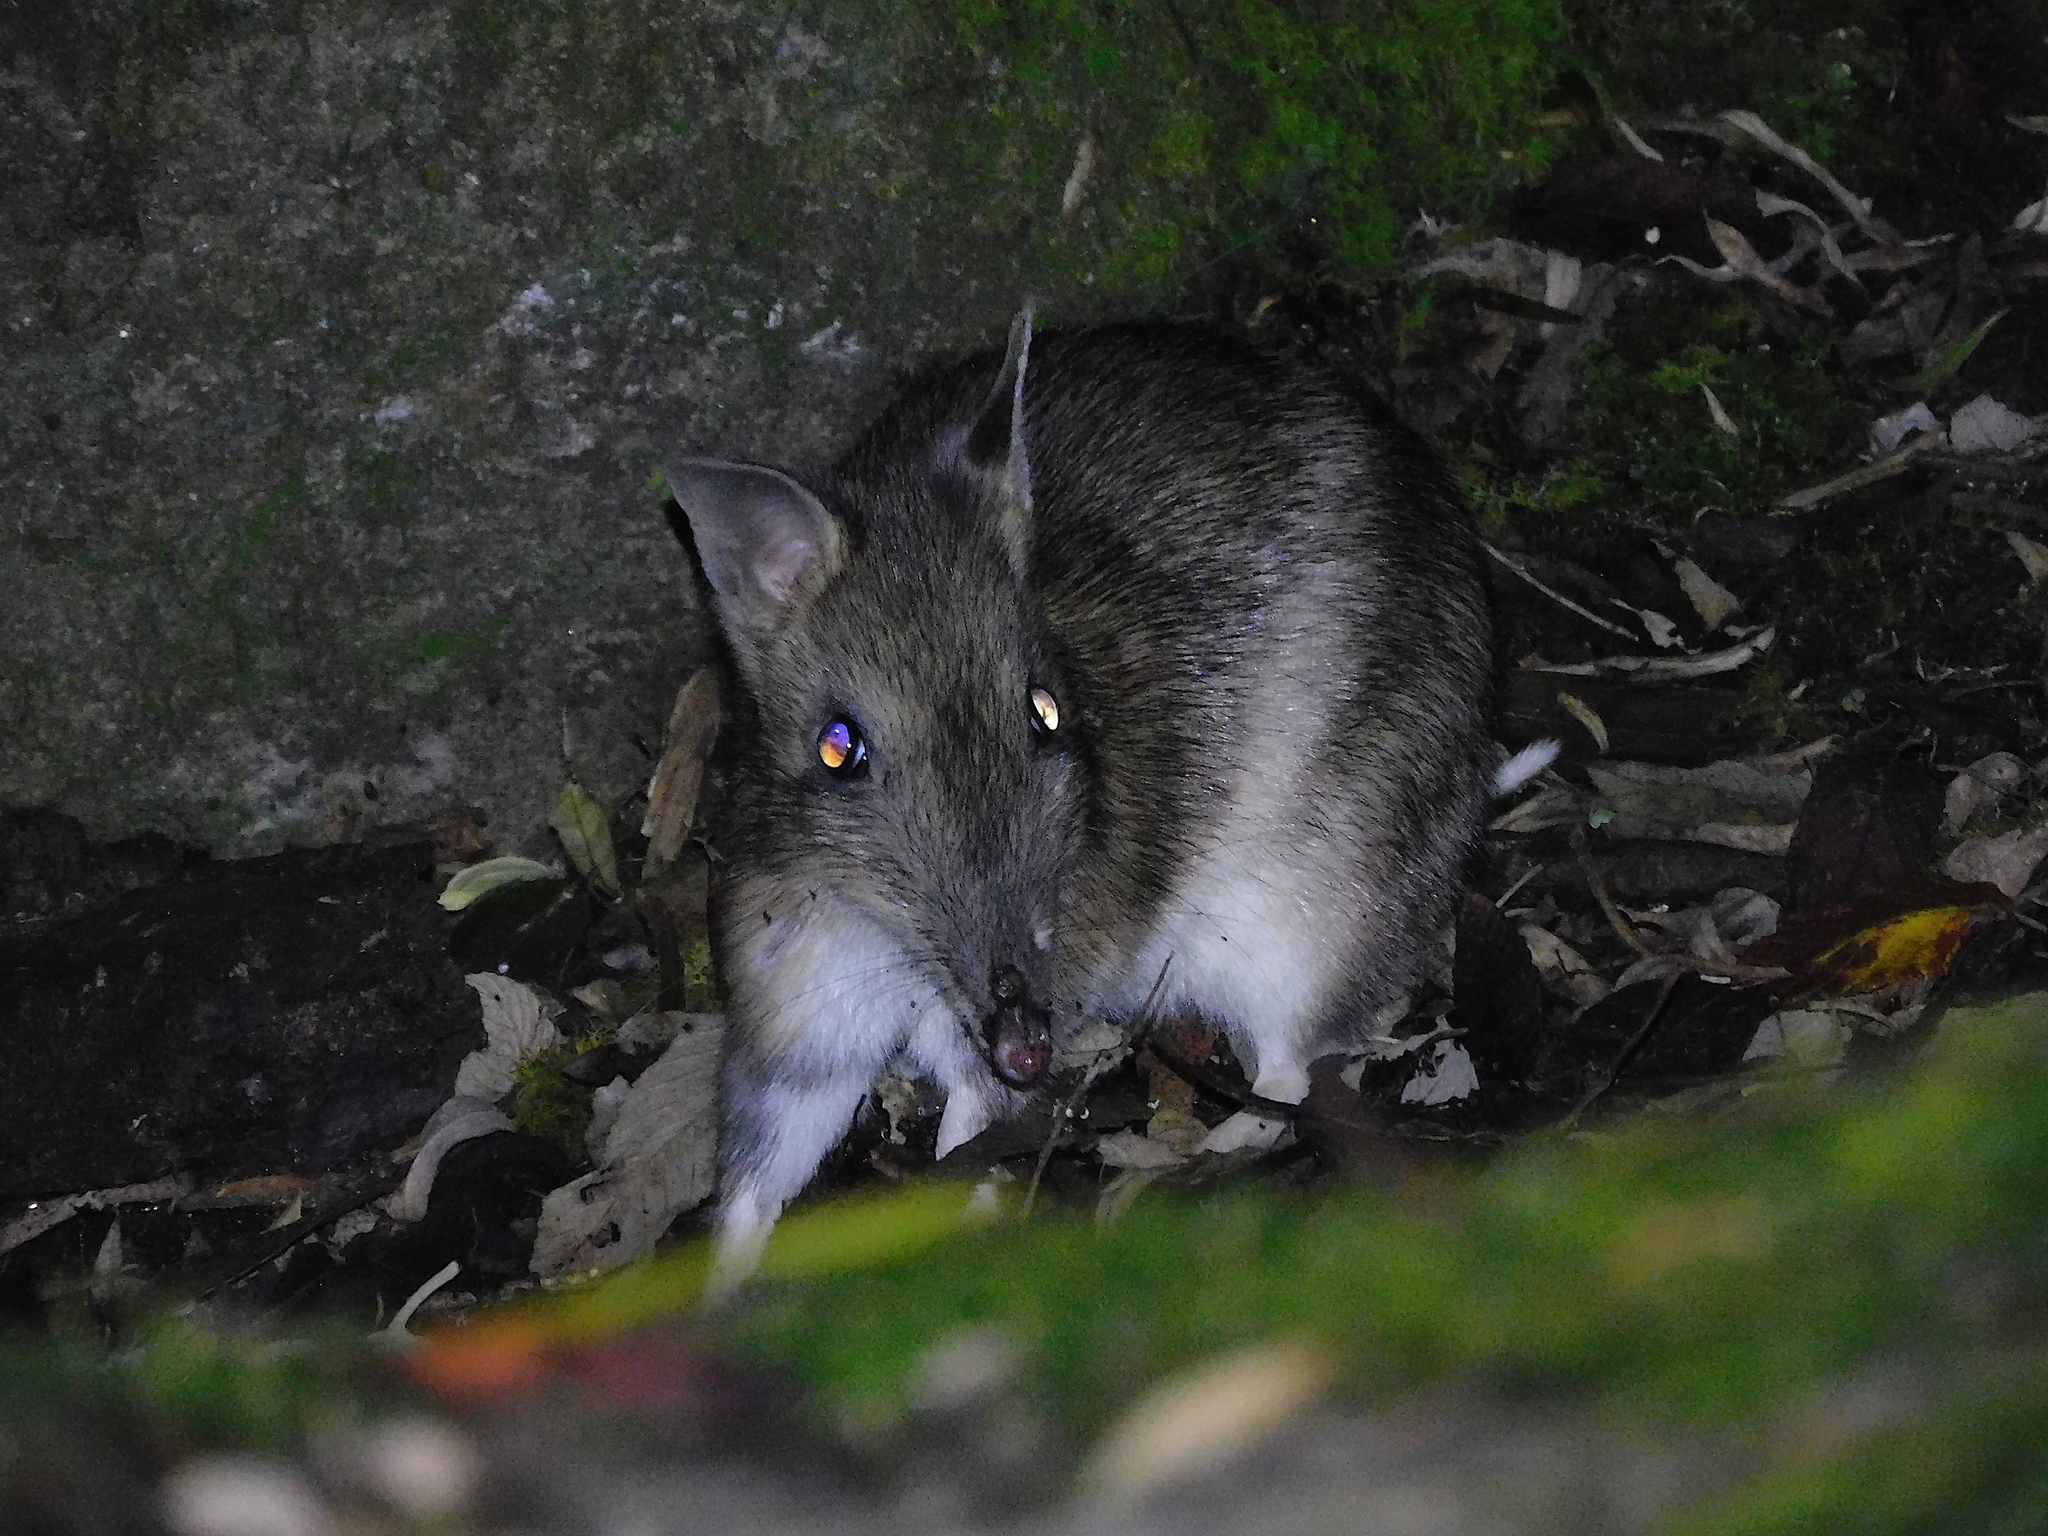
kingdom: Animalia
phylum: Chordata
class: Mammalia
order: Peramelemorphia
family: Peramelidae
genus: Perameles
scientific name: Perameles gunnii
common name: Eastern barred bandicoot
